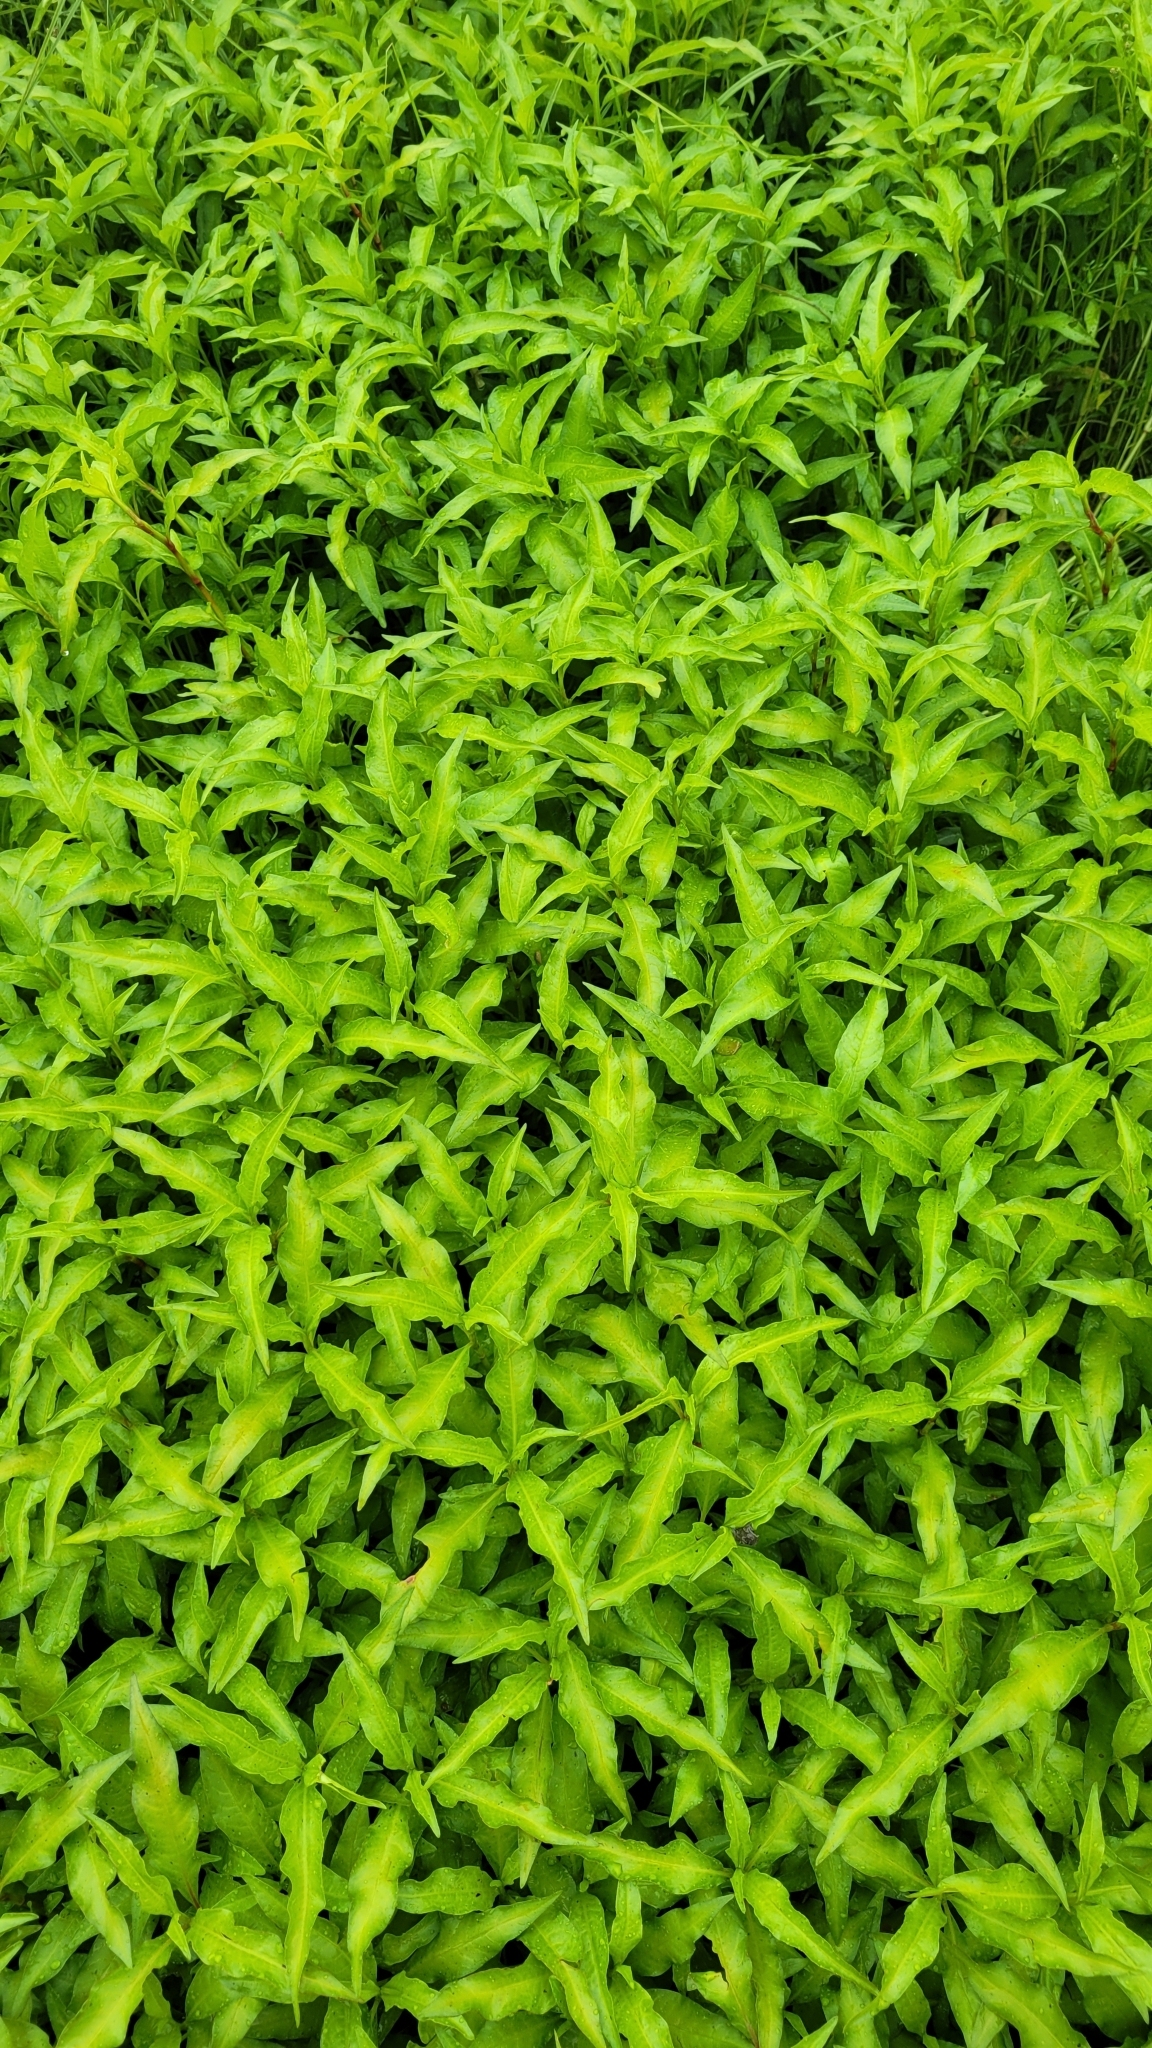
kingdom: Plantae
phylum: Tracheophyta
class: Magnoliopsida
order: Caryophyllales
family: Polygonaceae
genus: Persicaria
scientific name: Persicaria hydropiper
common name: Water-pepper
